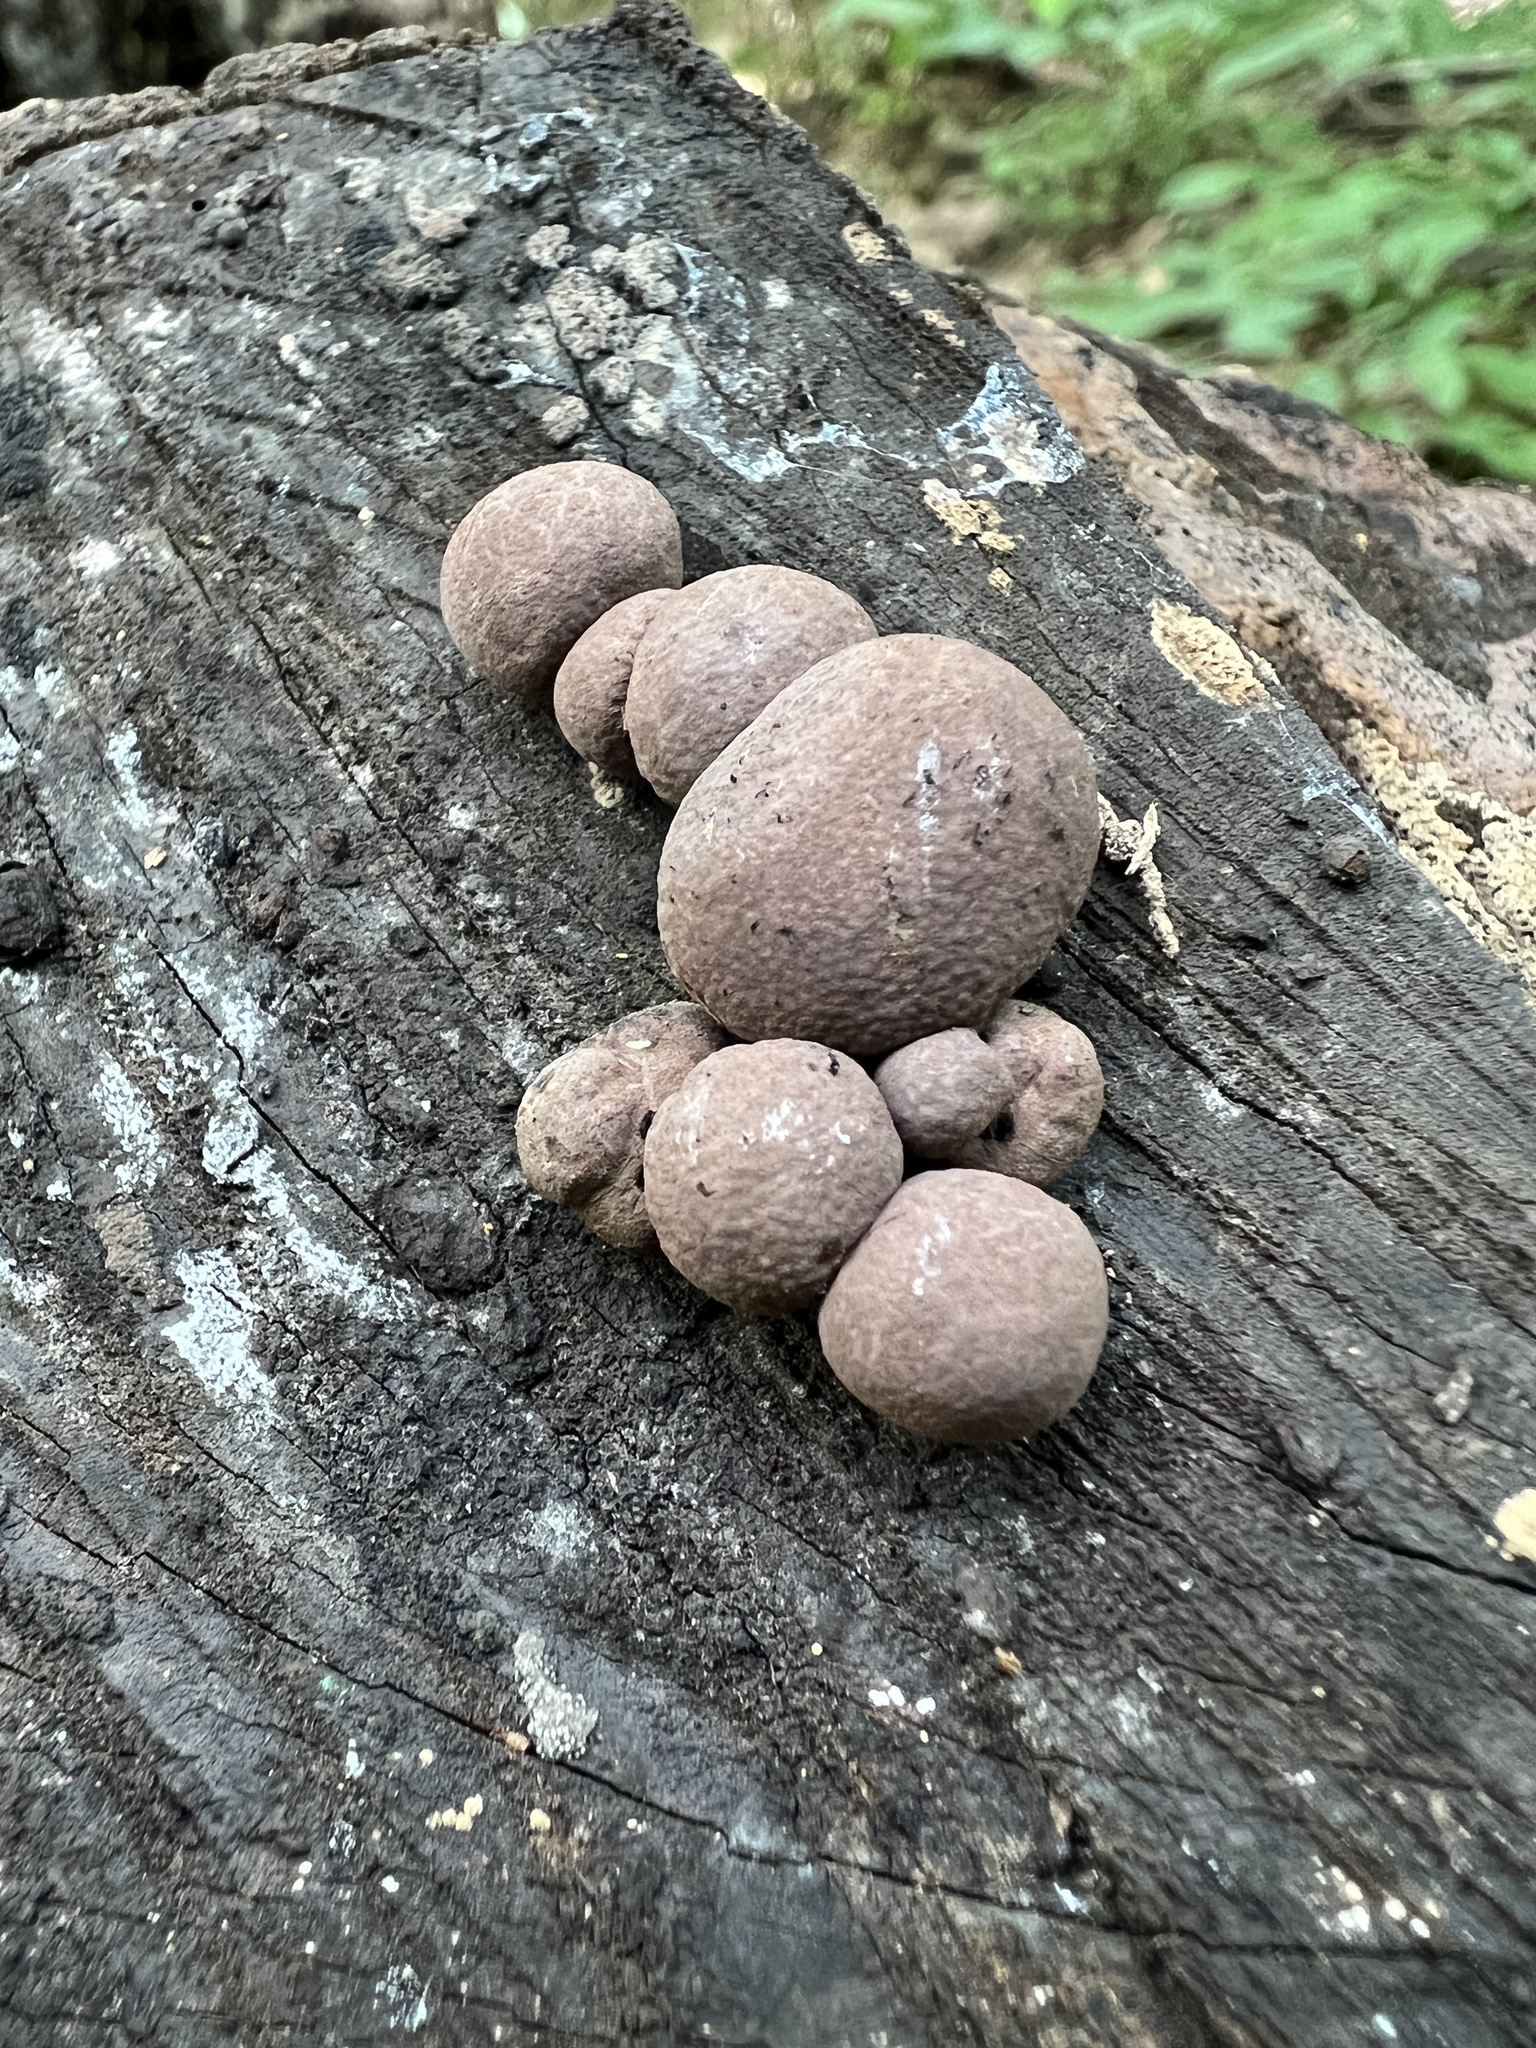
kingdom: Fungi
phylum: Ascomycota
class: Sordariomycetes
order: Xylariales
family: Hypoxylaceae
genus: Daldinia
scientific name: Daldinia childiae
